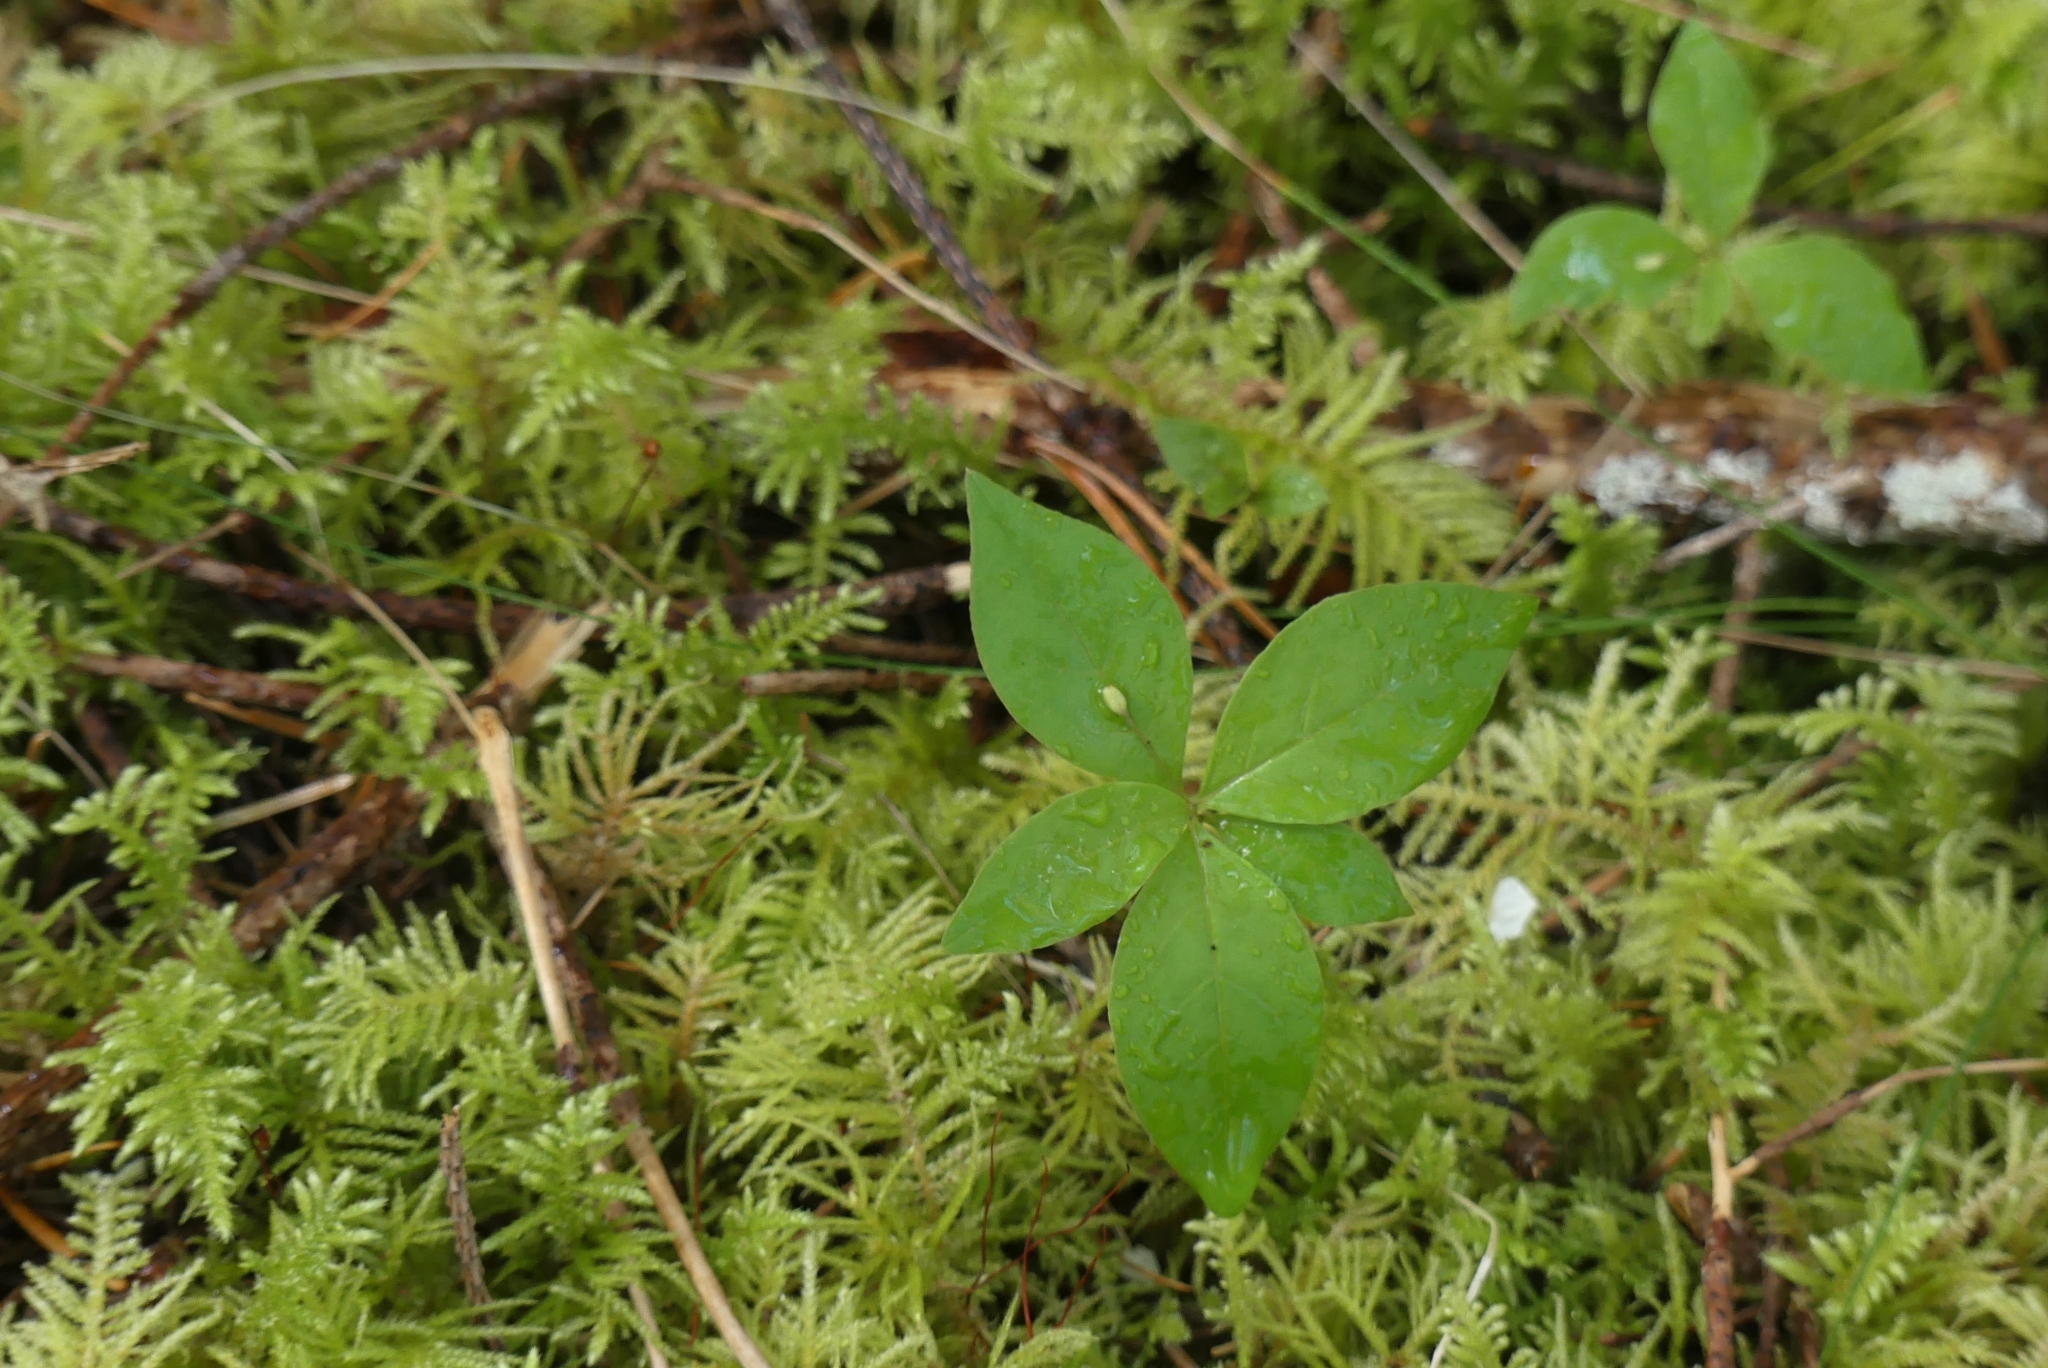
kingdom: Plantae
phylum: Tracheophyta
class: Magnoliopsida
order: Ericales
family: Primulaceae
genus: Lysimachia
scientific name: Lysimachia latifolia
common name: Pacific starflower
